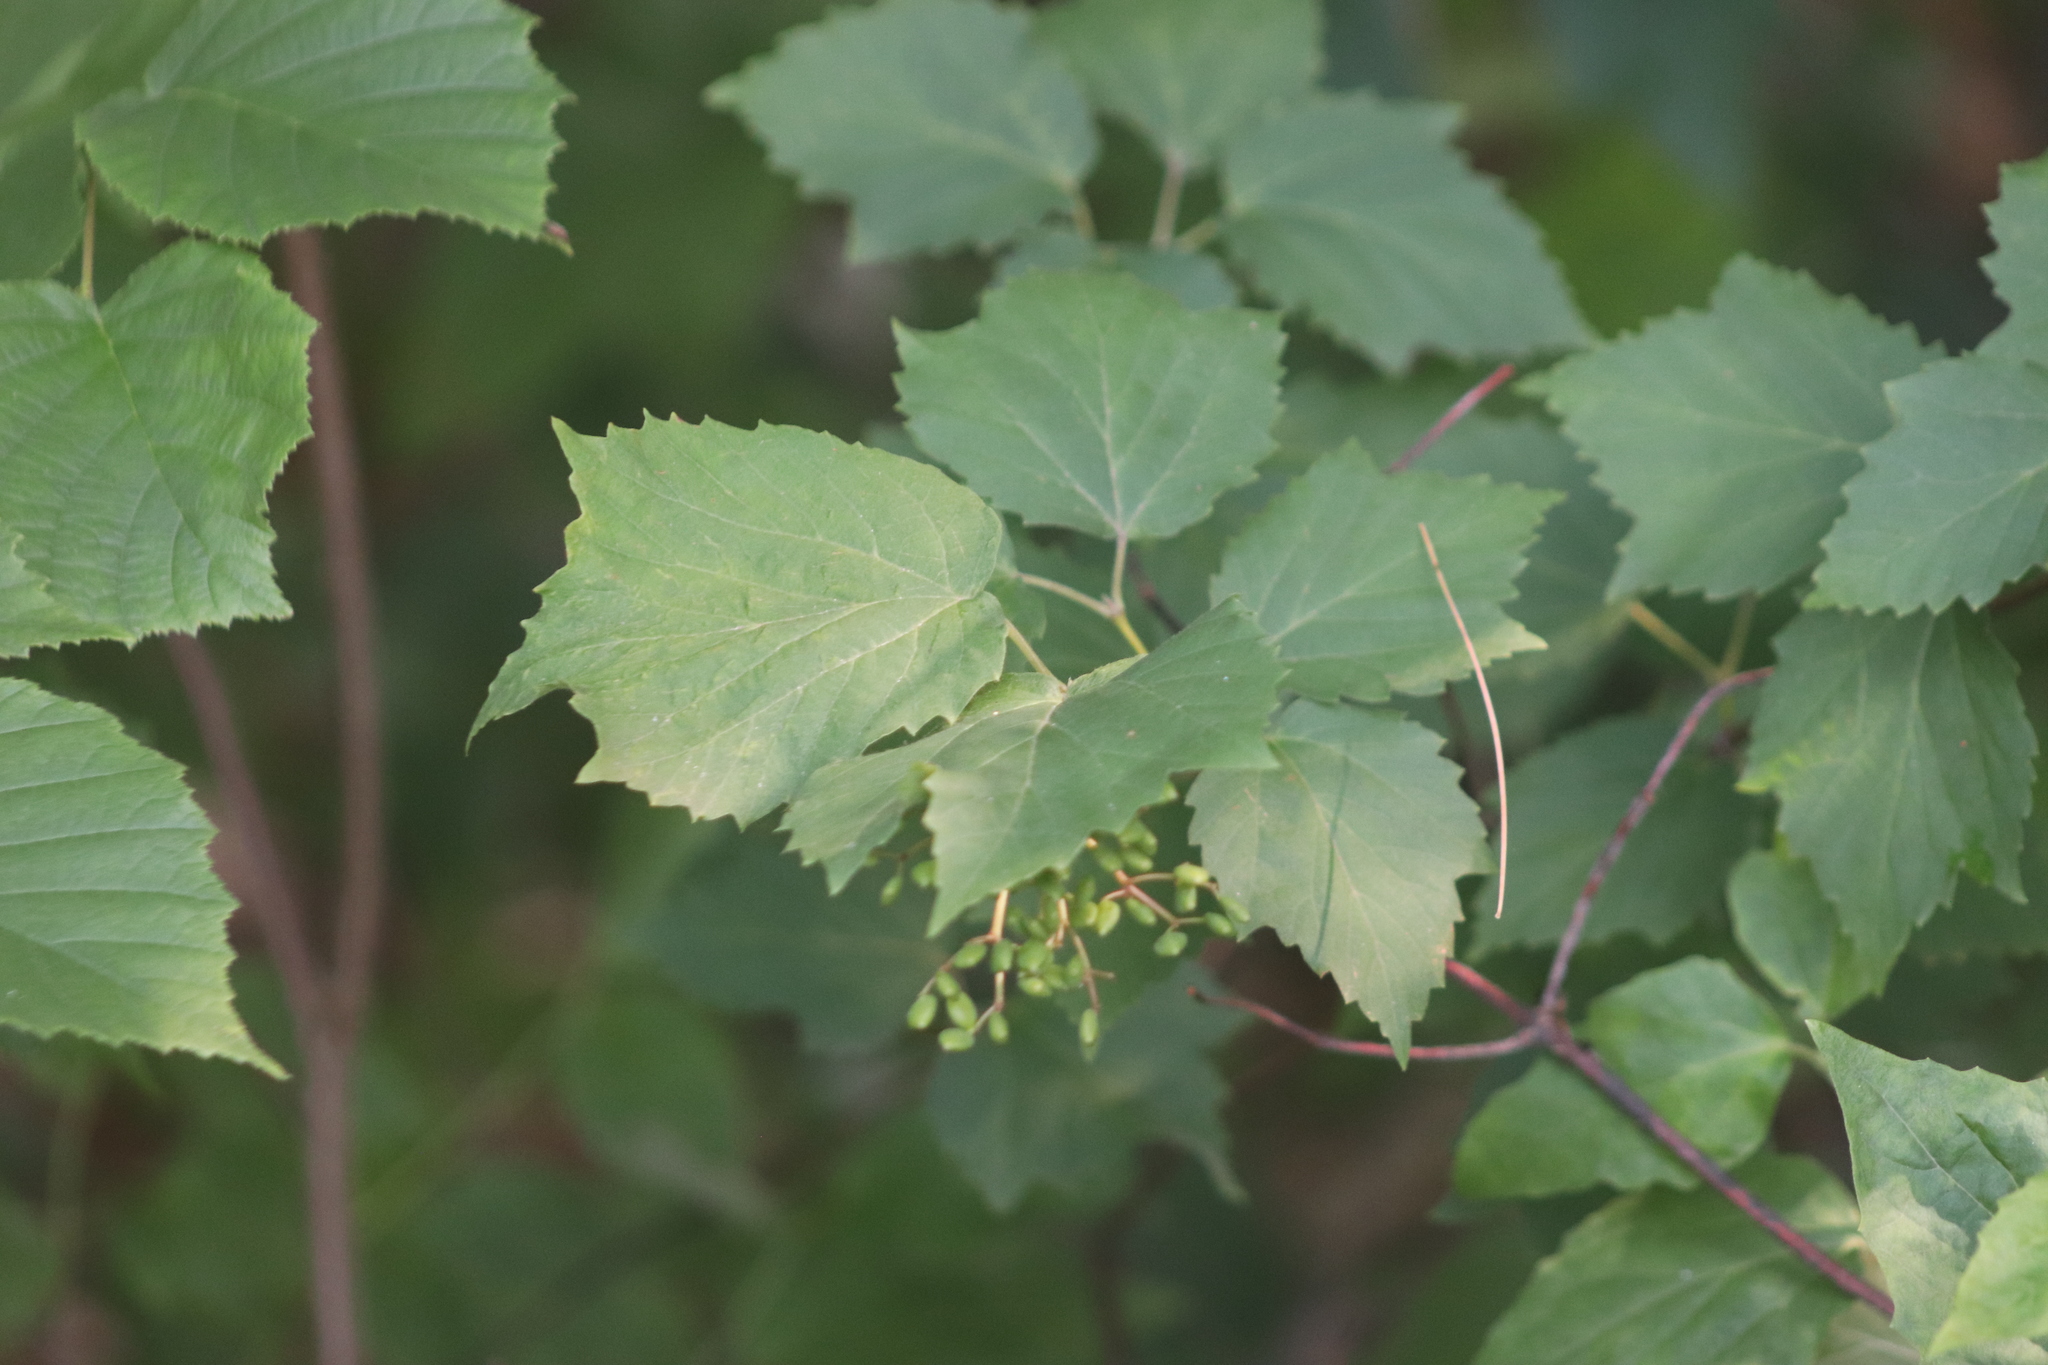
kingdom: Plantae
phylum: Tracheophyta
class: Magnoliopsida
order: Dipsacales
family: Viburnaceae
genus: Viburnum
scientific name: Viburnum acerifolium
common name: Dockmackie
